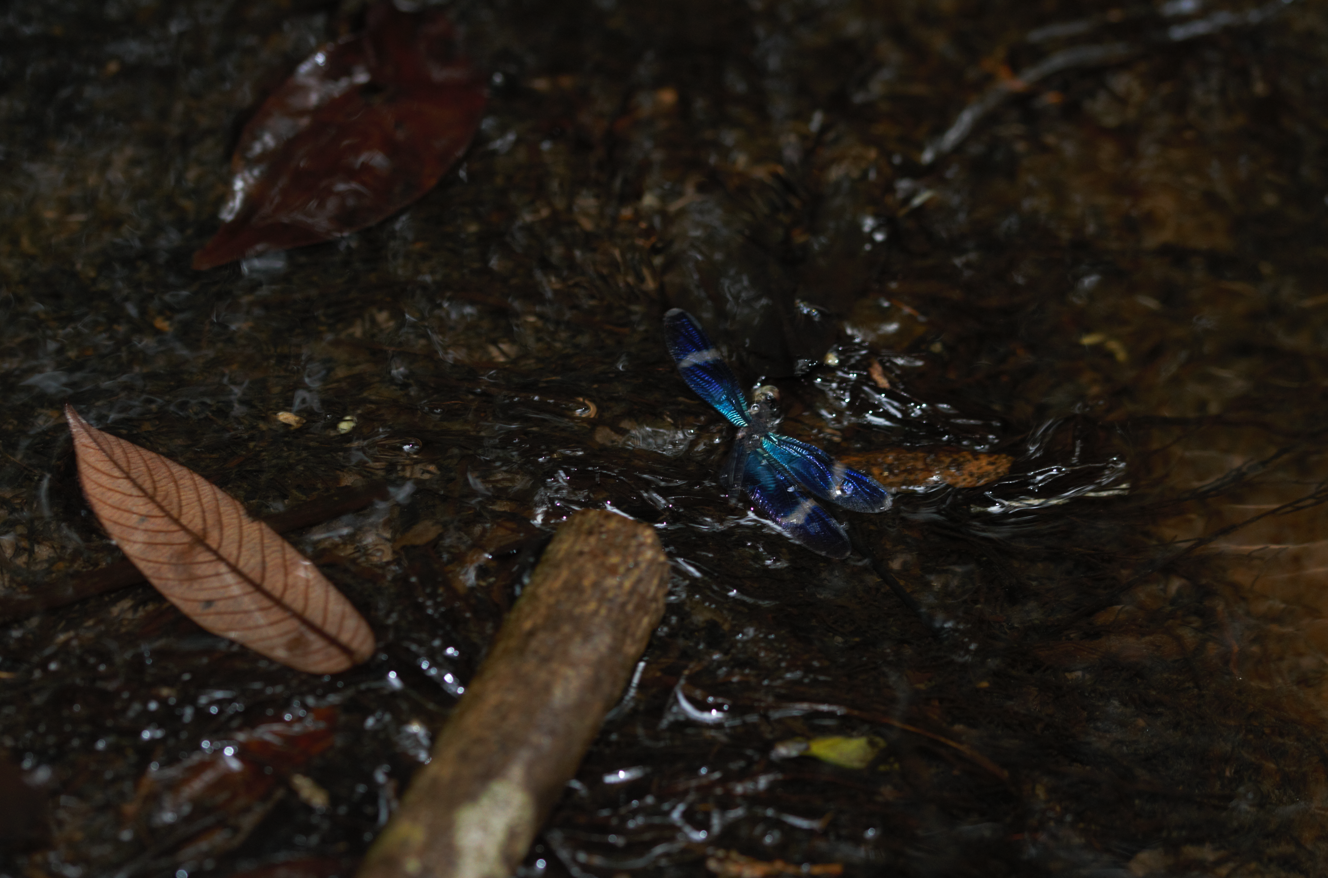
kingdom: Animalia
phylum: Arthropoda
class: Insecta
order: Odonata
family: Libellulidae
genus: Zenithoptera
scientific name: Zenithoptera
